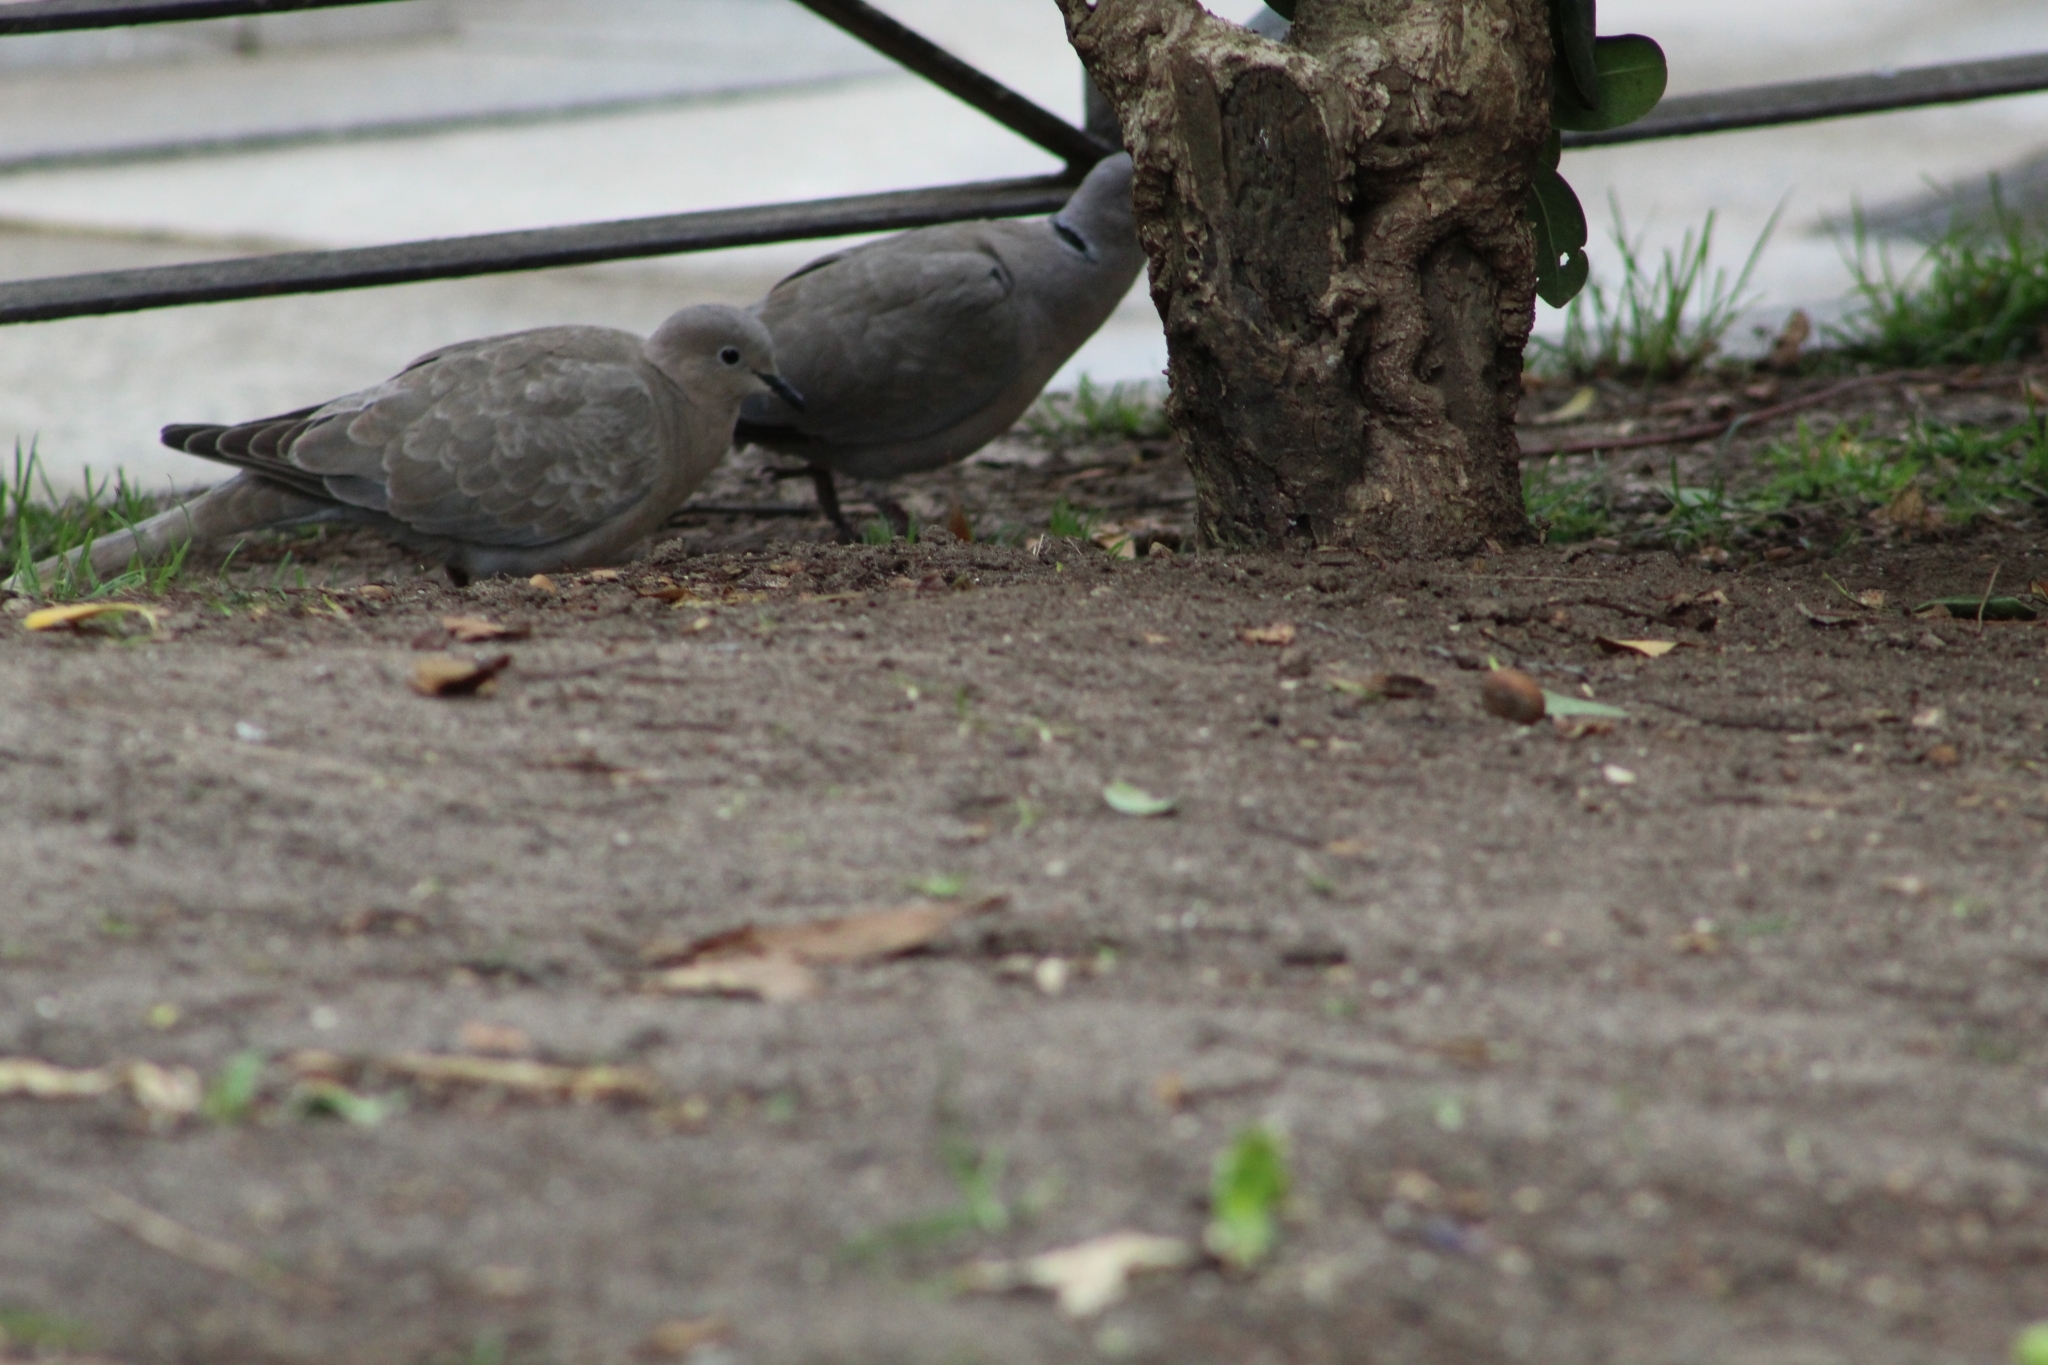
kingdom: Animalia
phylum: Chordata
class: Aves
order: Columbiformes
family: Columbidae
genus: Streptopelia
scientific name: Streptopelia decaocto
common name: Eurasian collared dove
